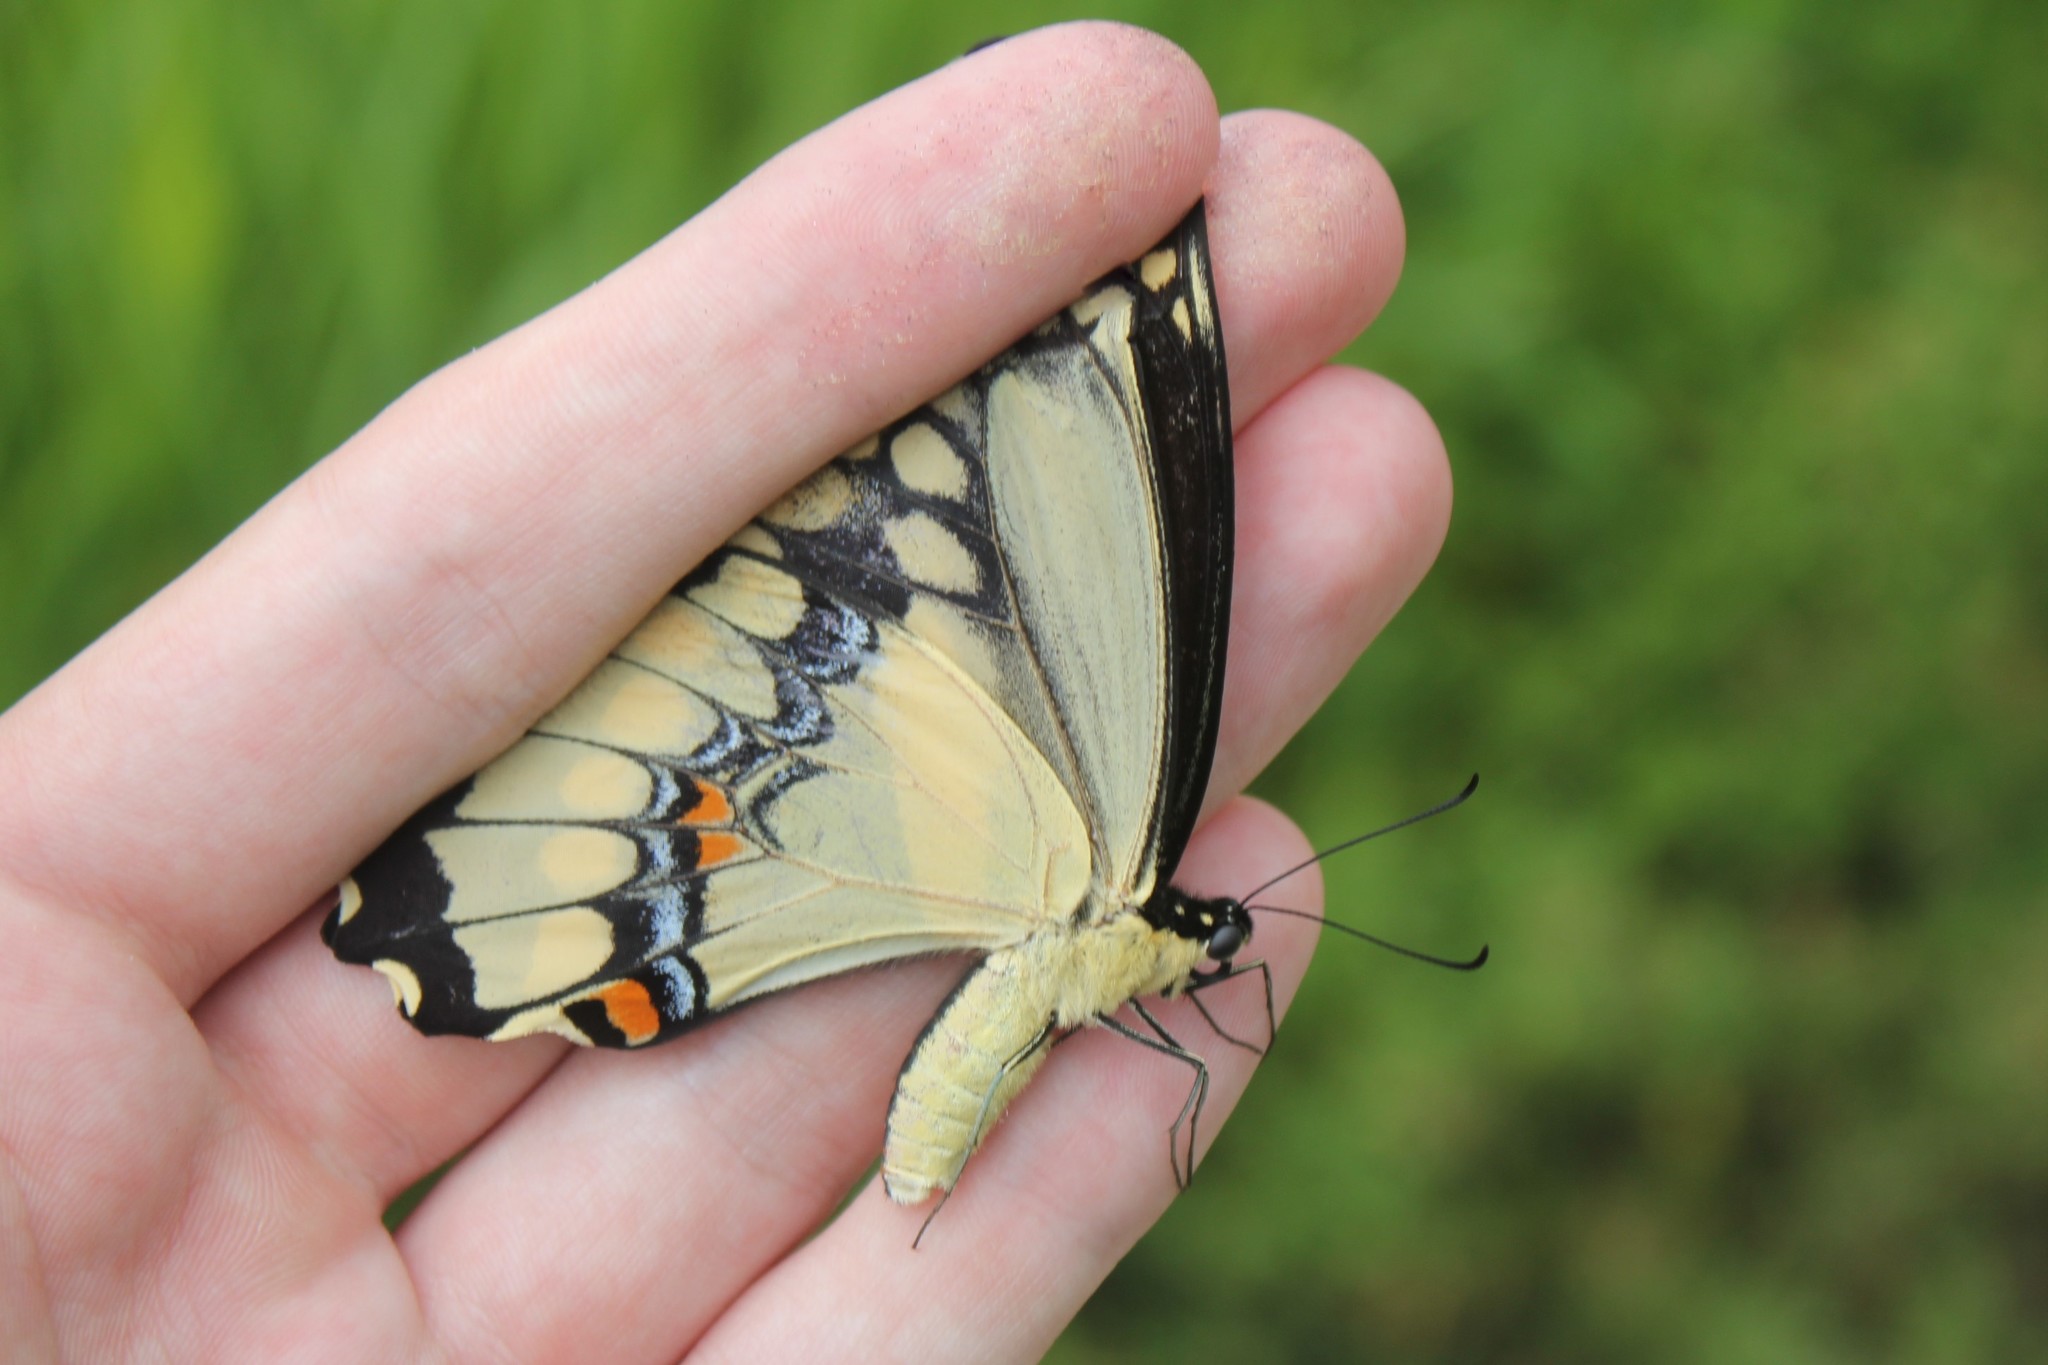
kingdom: Animalia
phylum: Arthropoda
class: Insecta
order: Lepidoptera
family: Papilionidae
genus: Papilio
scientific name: Papilio cresphontes
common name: Giant swallowtail
